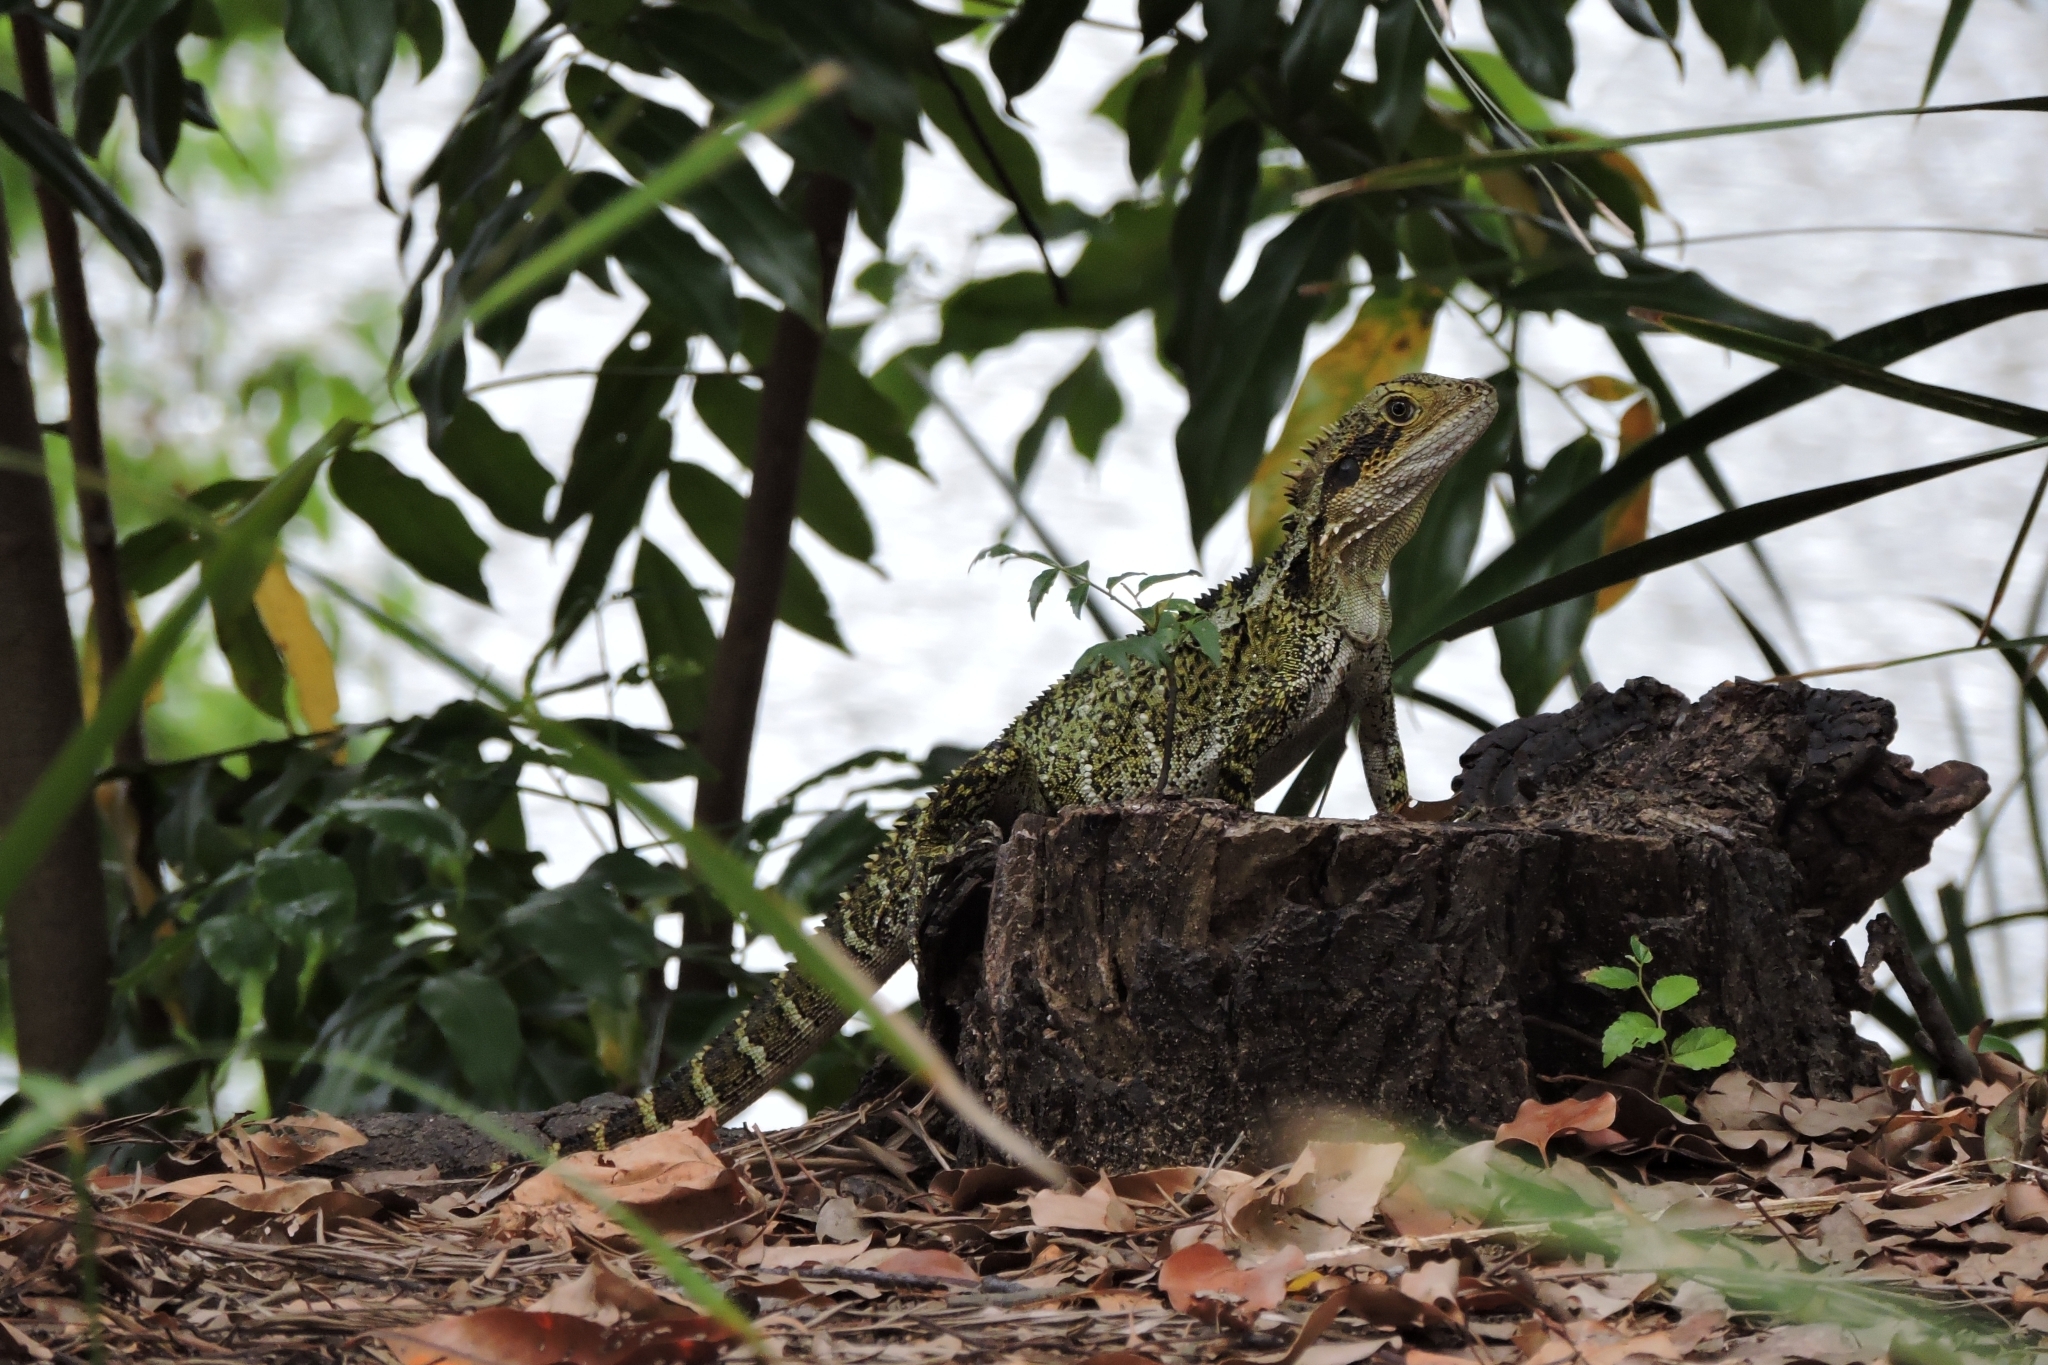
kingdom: Animalia
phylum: Chordata
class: Squamata
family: Agamidae
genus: Intellagama
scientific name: Intellagama lesueurii
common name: Eastern water dragon
